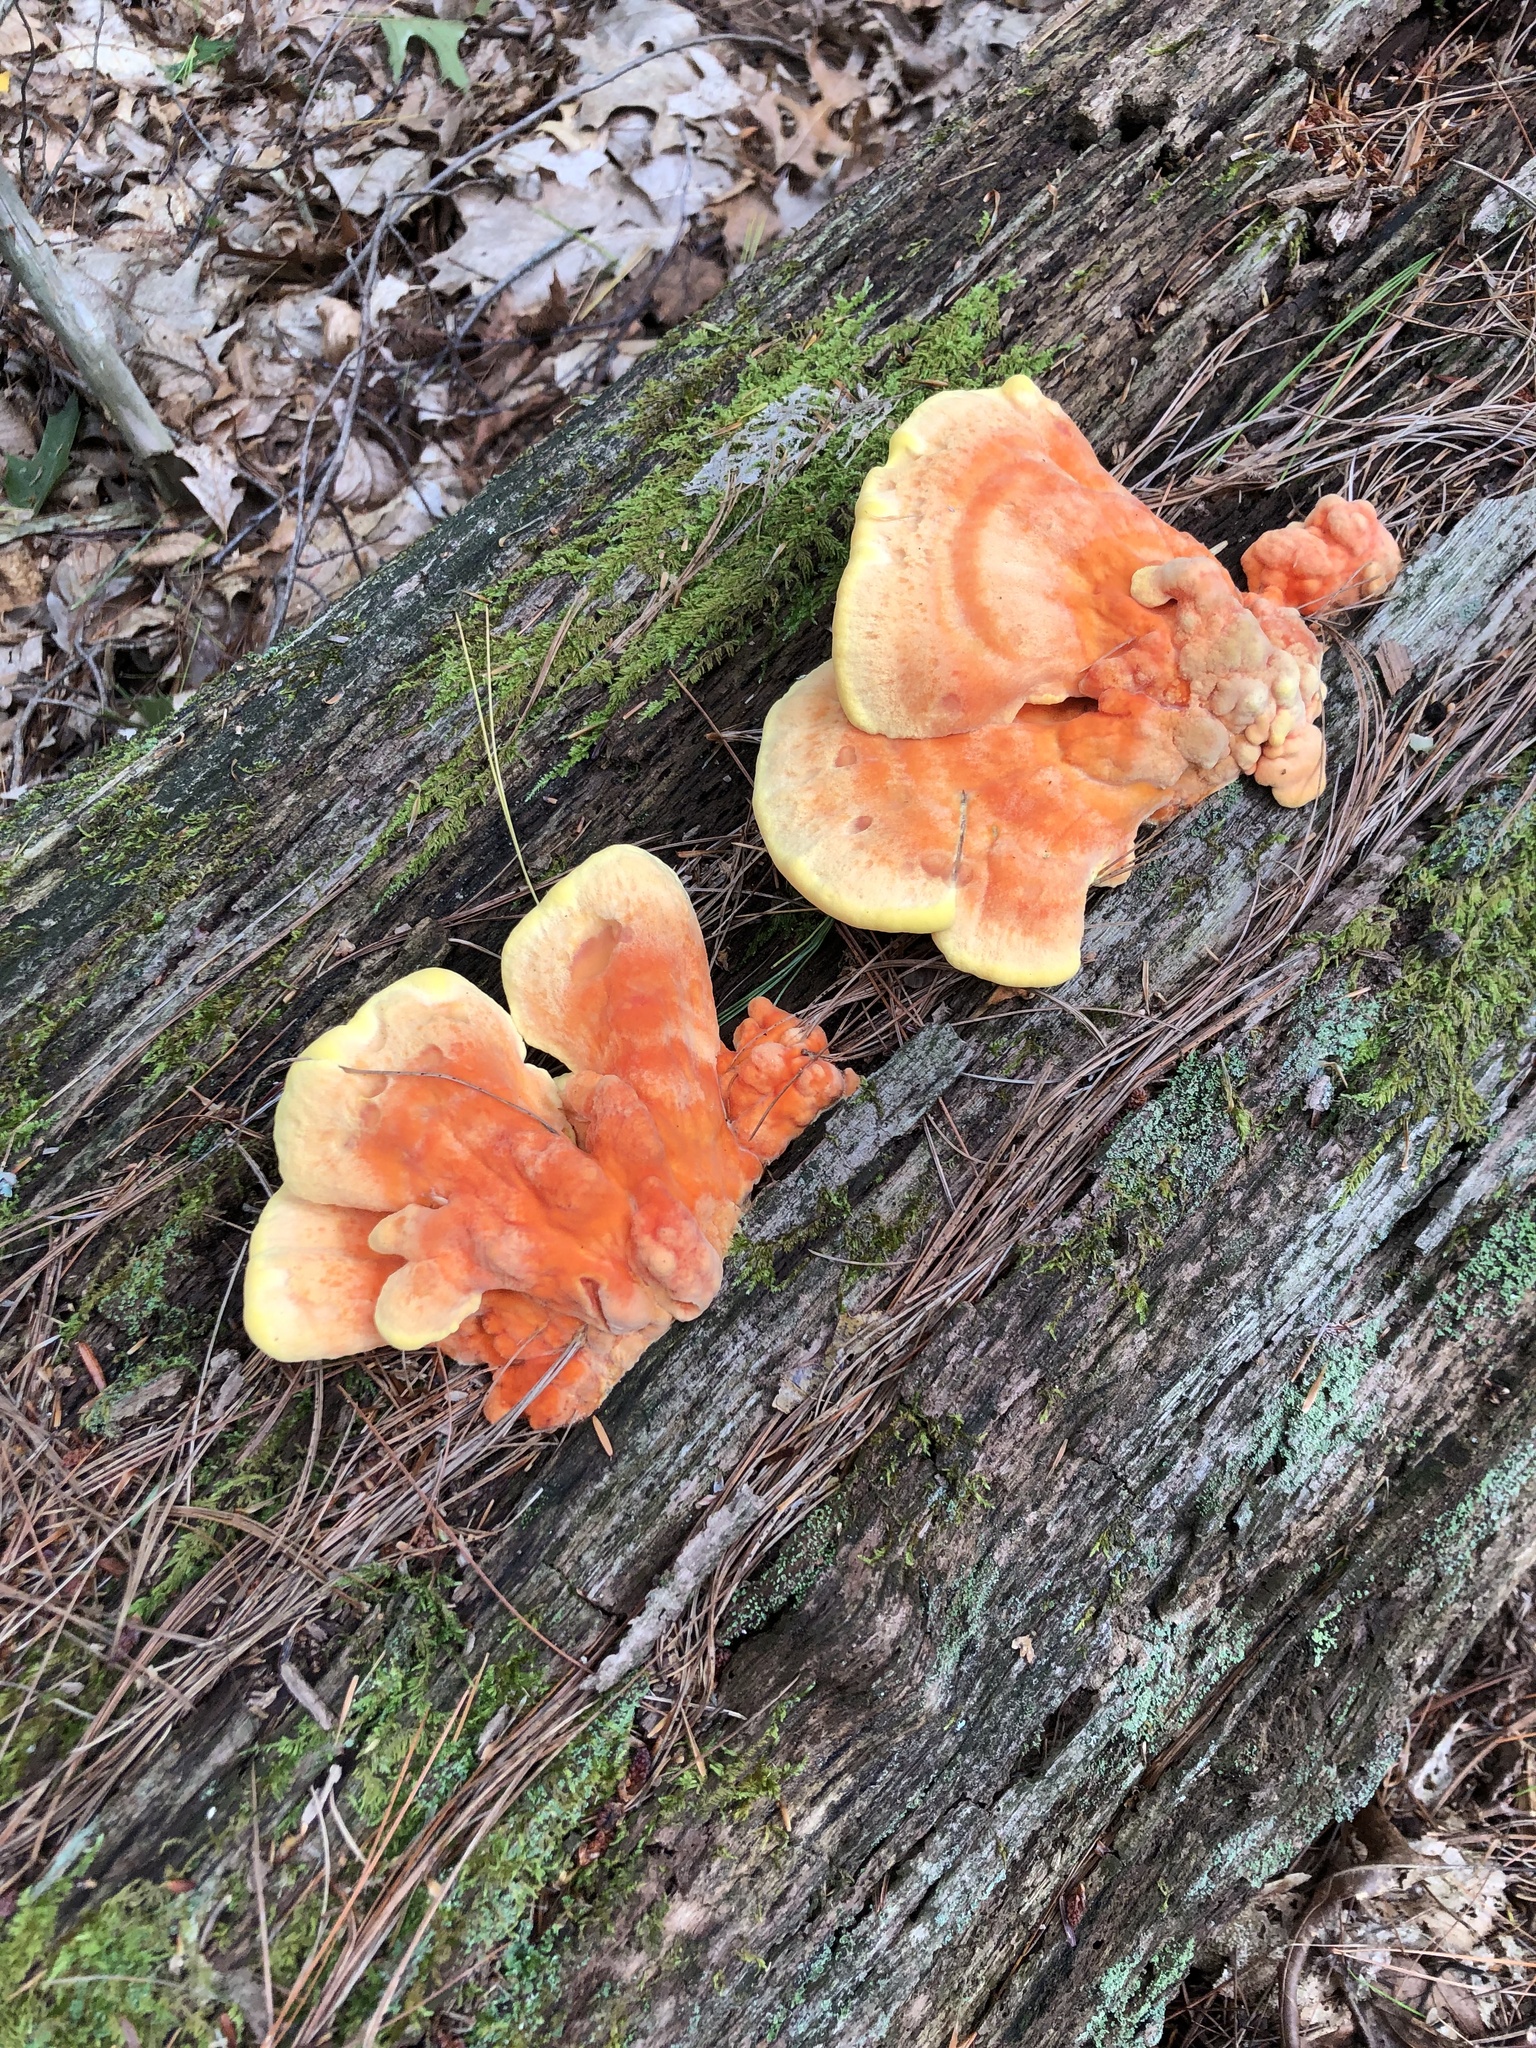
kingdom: Fungi
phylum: Basidiomycota
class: Agaricomycetes
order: Polyporales
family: Laetiporaceae
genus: Laetiporus
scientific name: Laetiporus sulphureus
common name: Chicken of the woods
